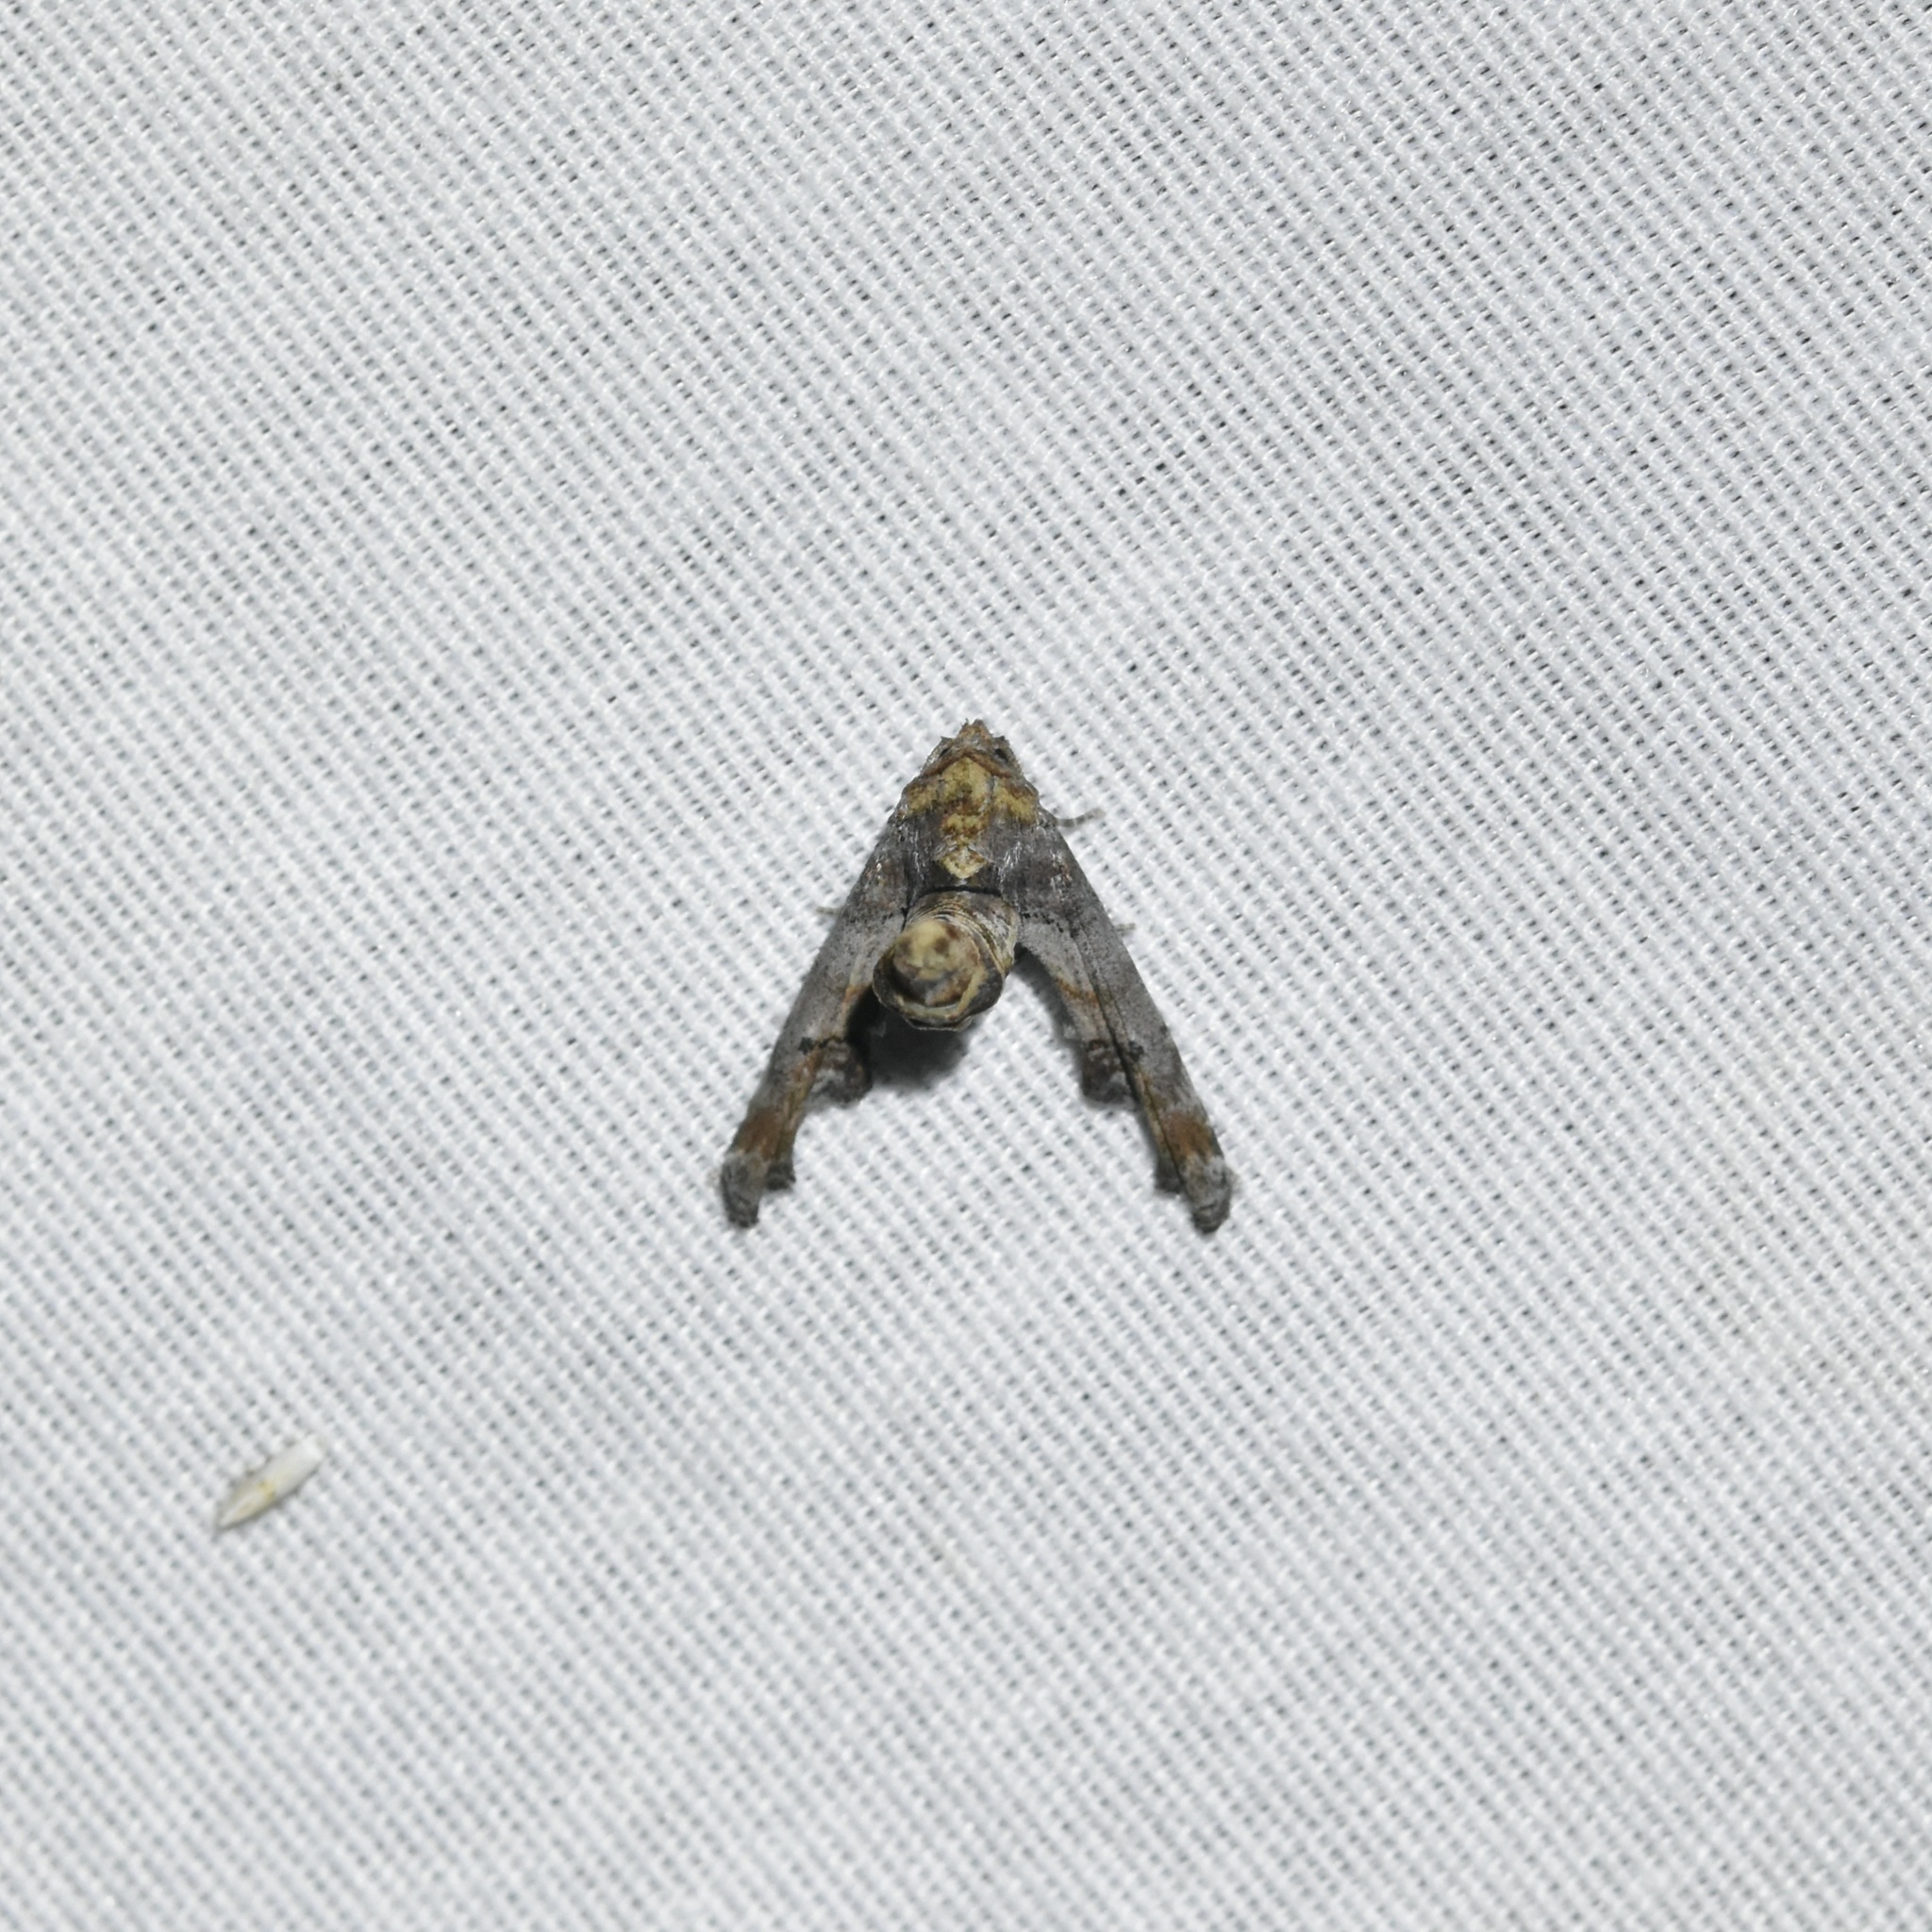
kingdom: Animalia
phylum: Arthropoda
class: Insecta
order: Lepidoptera
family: Euteliidae
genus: Marathyssa
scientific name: Marathyssa inficita
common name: Dark marathyssa moth
